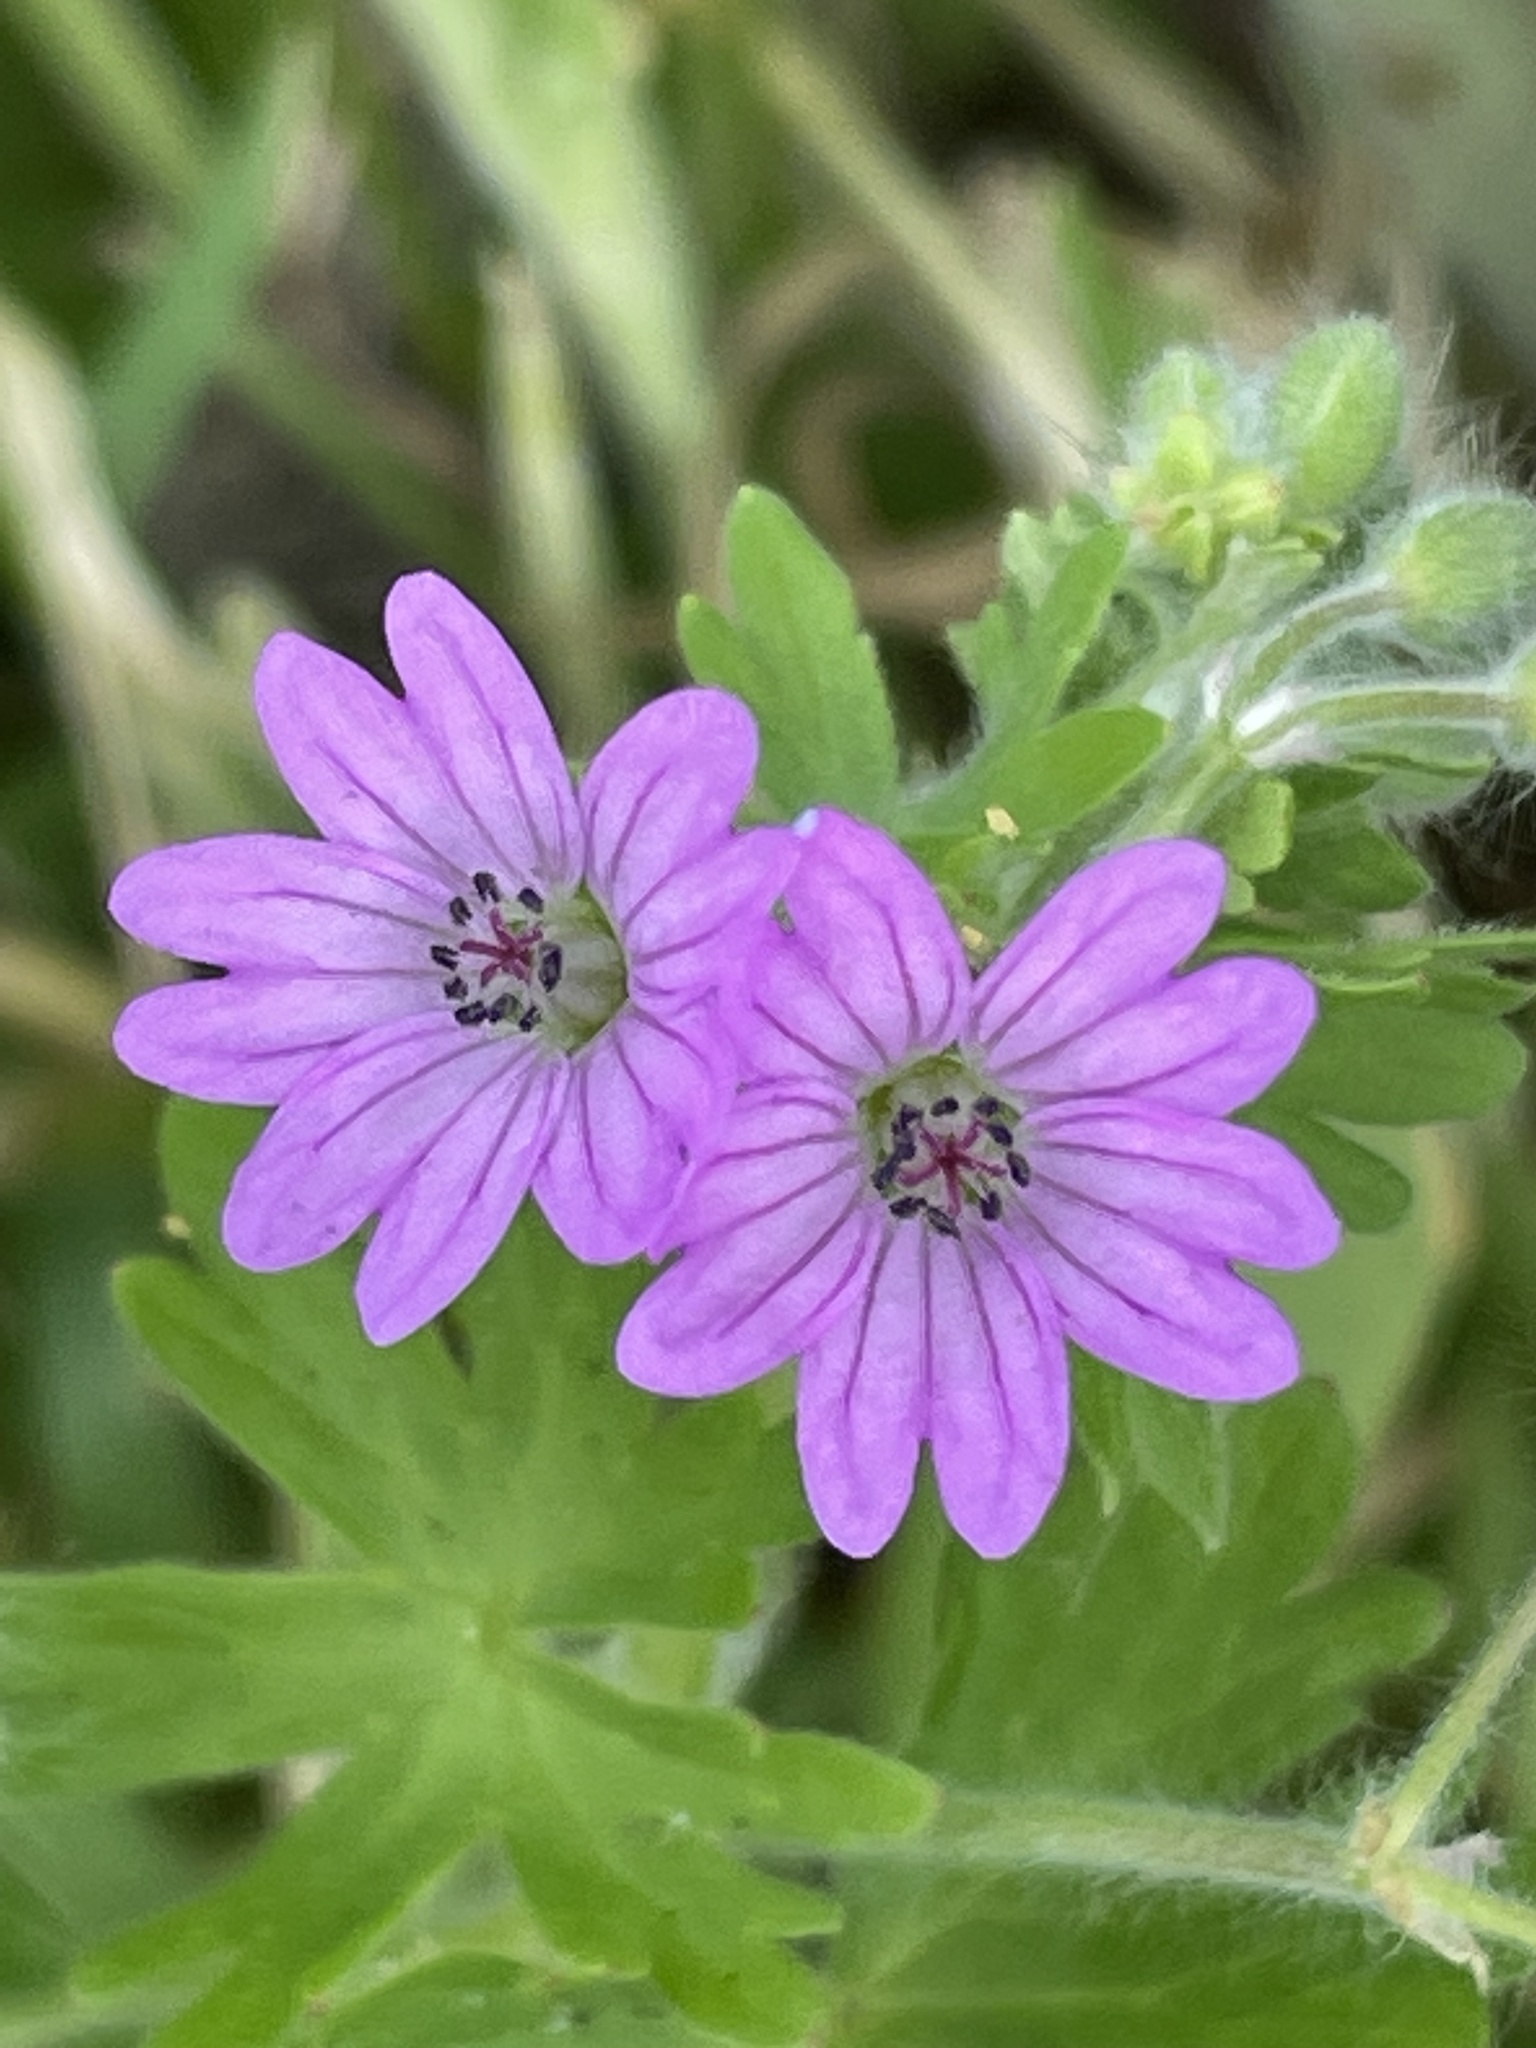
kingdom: Plantae
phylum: Tracheophyta
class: Magnoliopsida
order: Geraniales
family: Geraniaceae
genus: Geranium
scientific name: Geranium molle
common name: Dove's-foot crane's-bill
